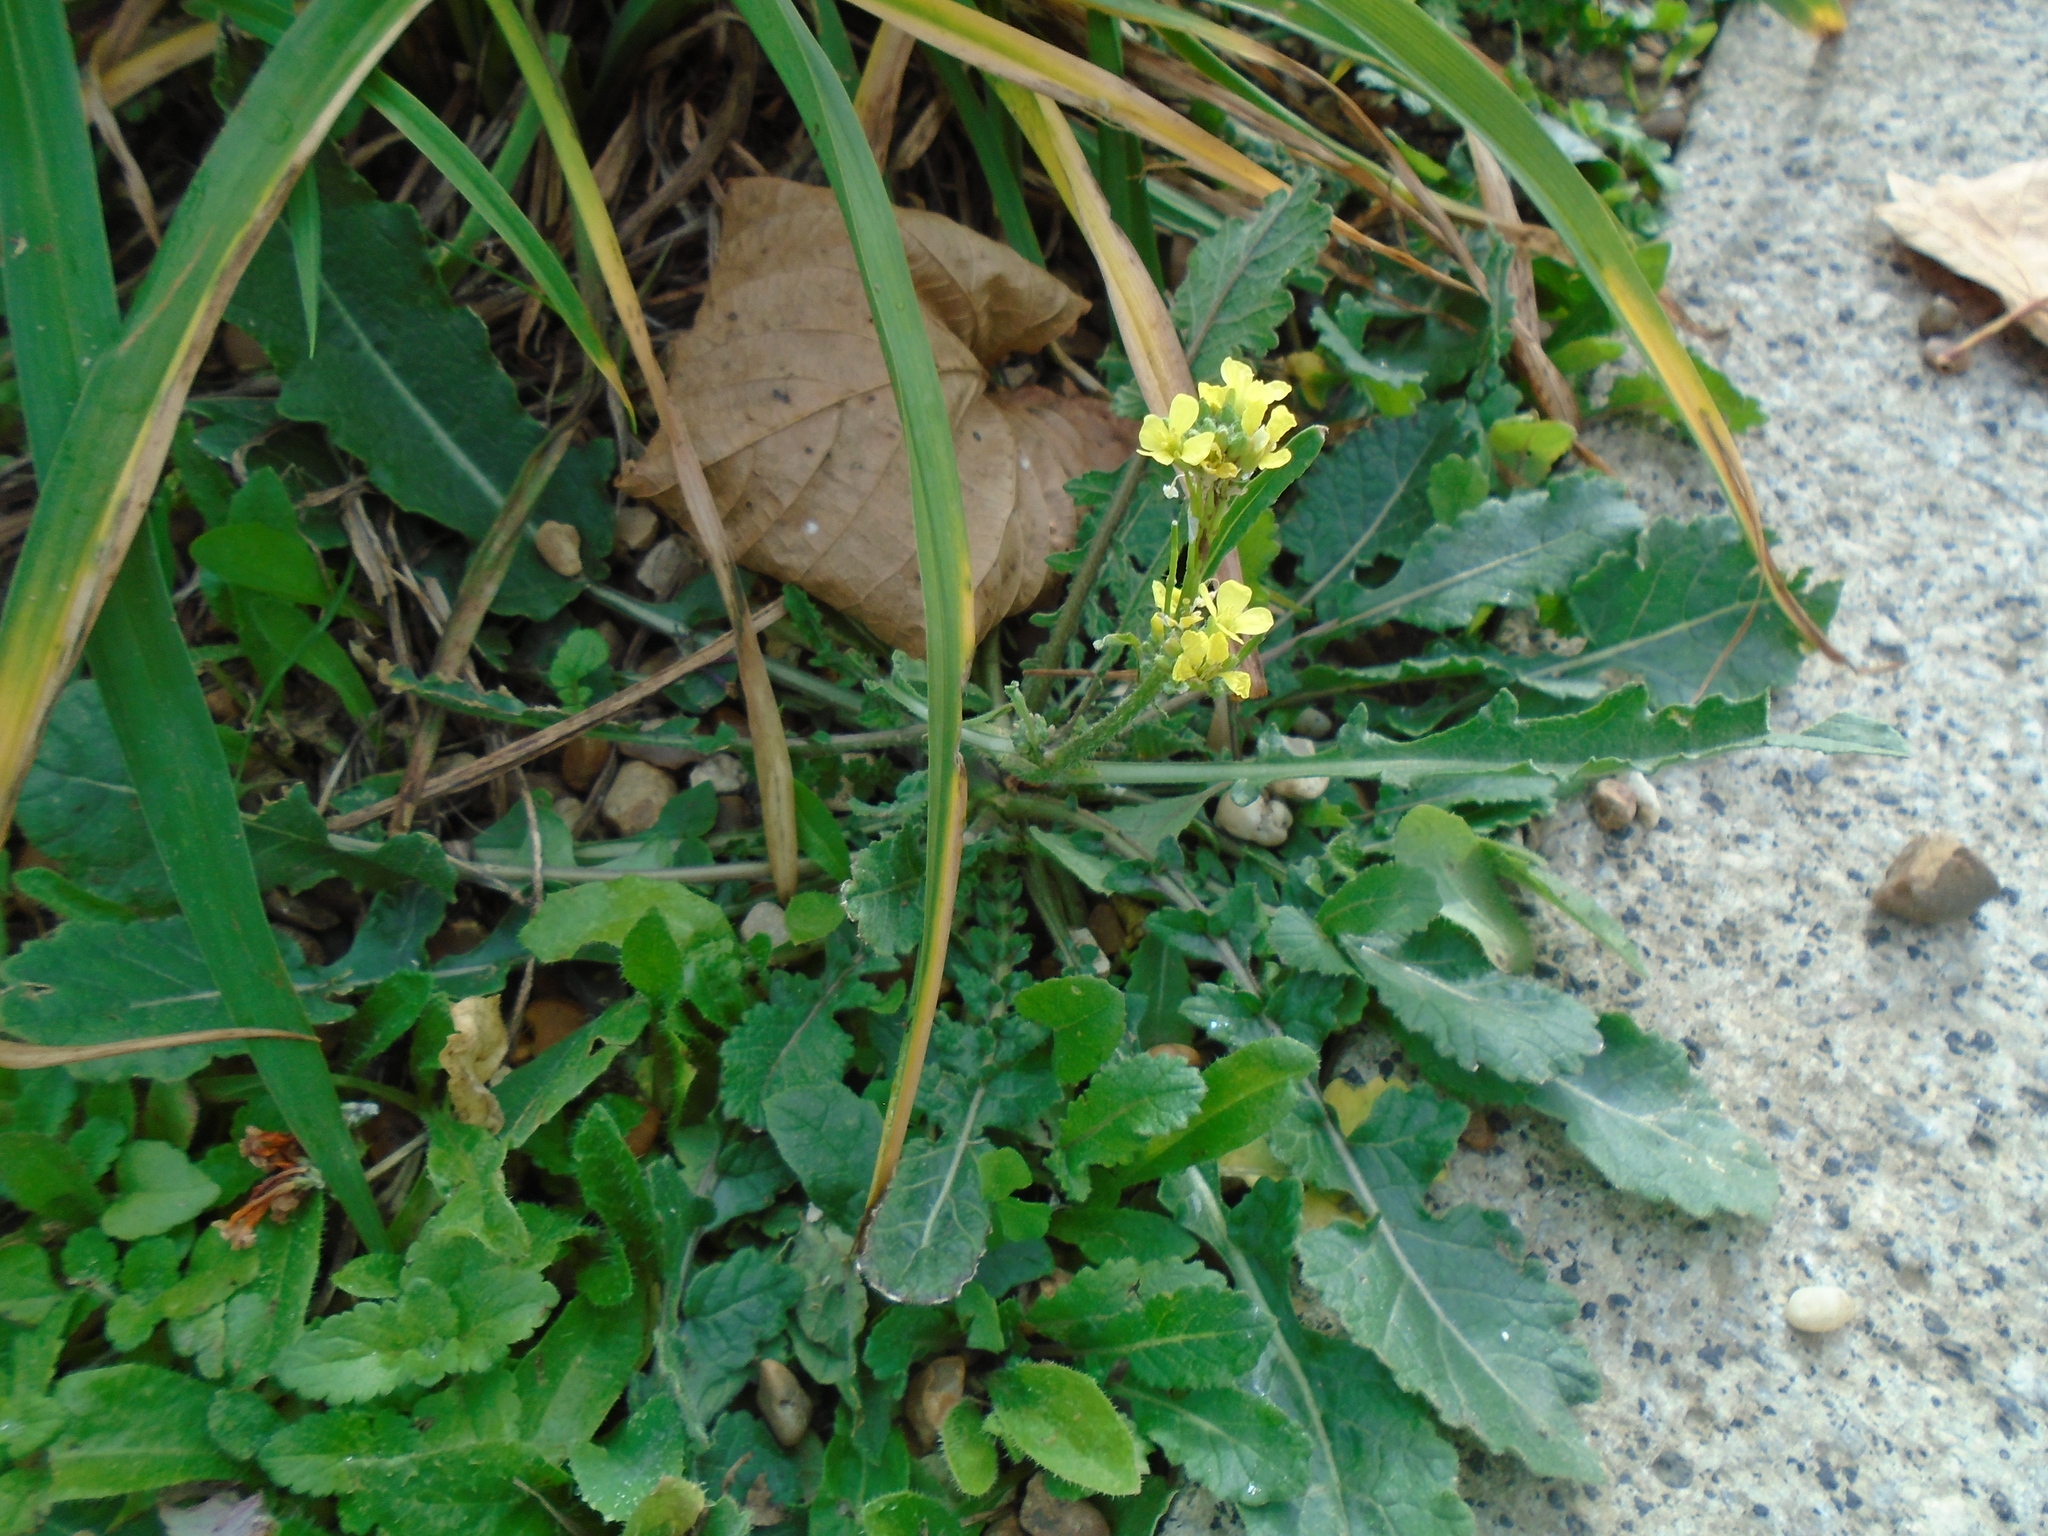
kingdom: Plantae
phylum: Tracheophyta
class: Magnoliopsida
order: Brassicales
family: Brassicaceae
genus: Hirschfeldia
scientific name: Hirschfeldia incana
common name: Hoary mustard
